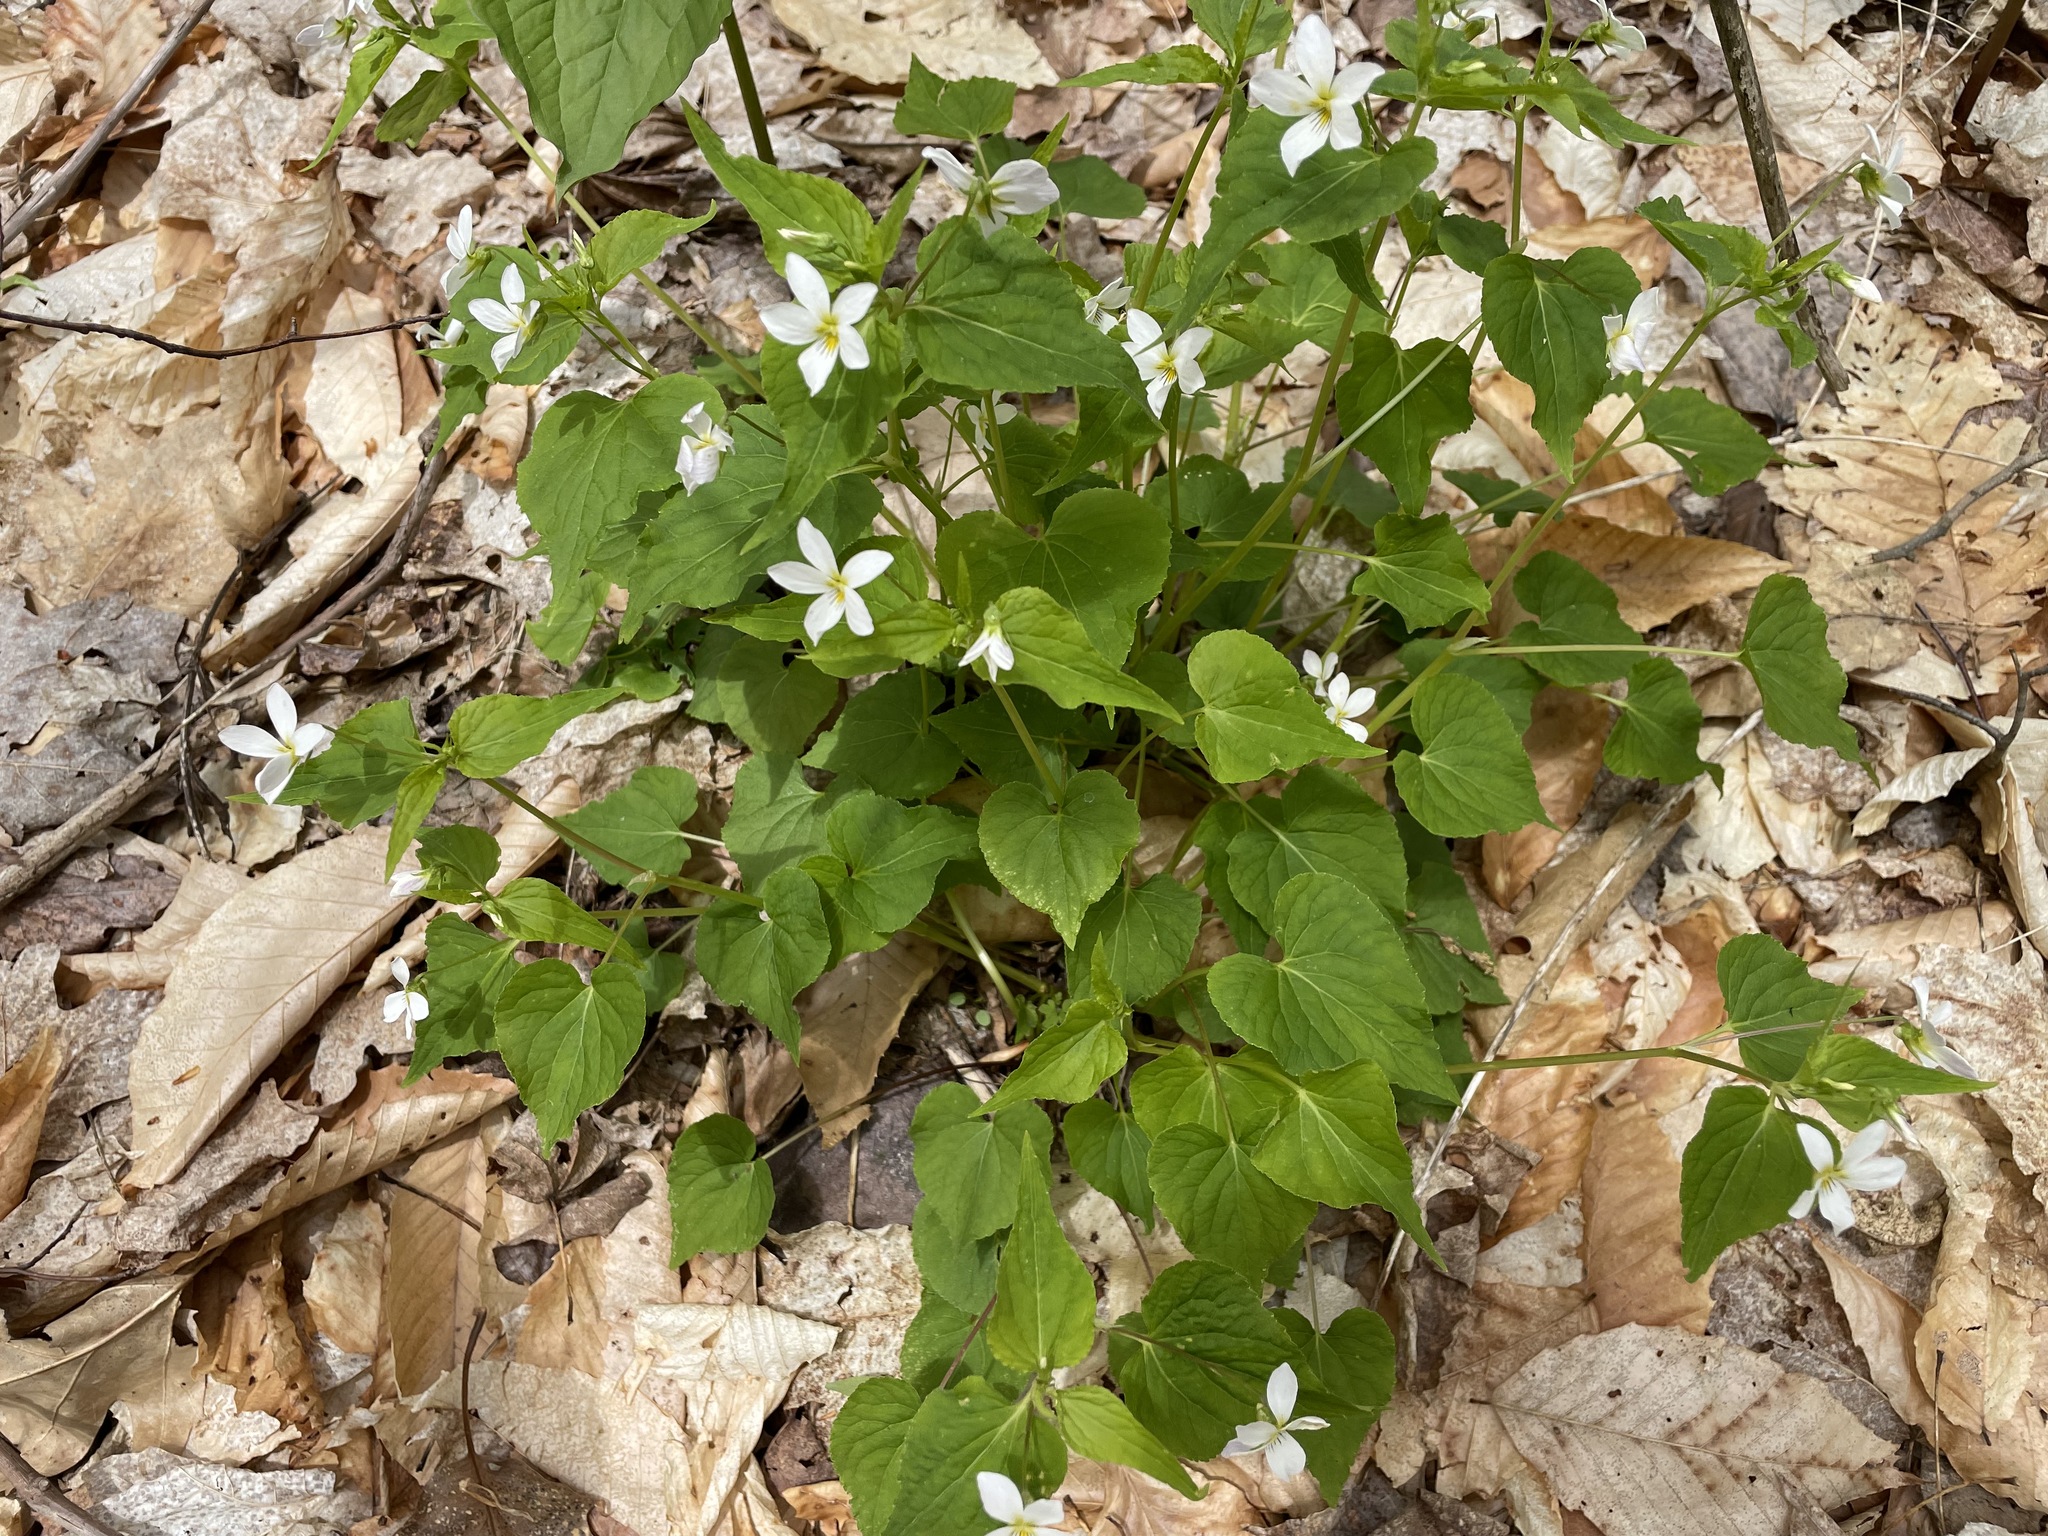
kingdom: Plantae
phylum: Tracheophyta
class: Magnoliopsida
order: Malpighiales
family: Violaceae
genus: Viola
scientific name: Viola canadensis
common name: Canada violet
